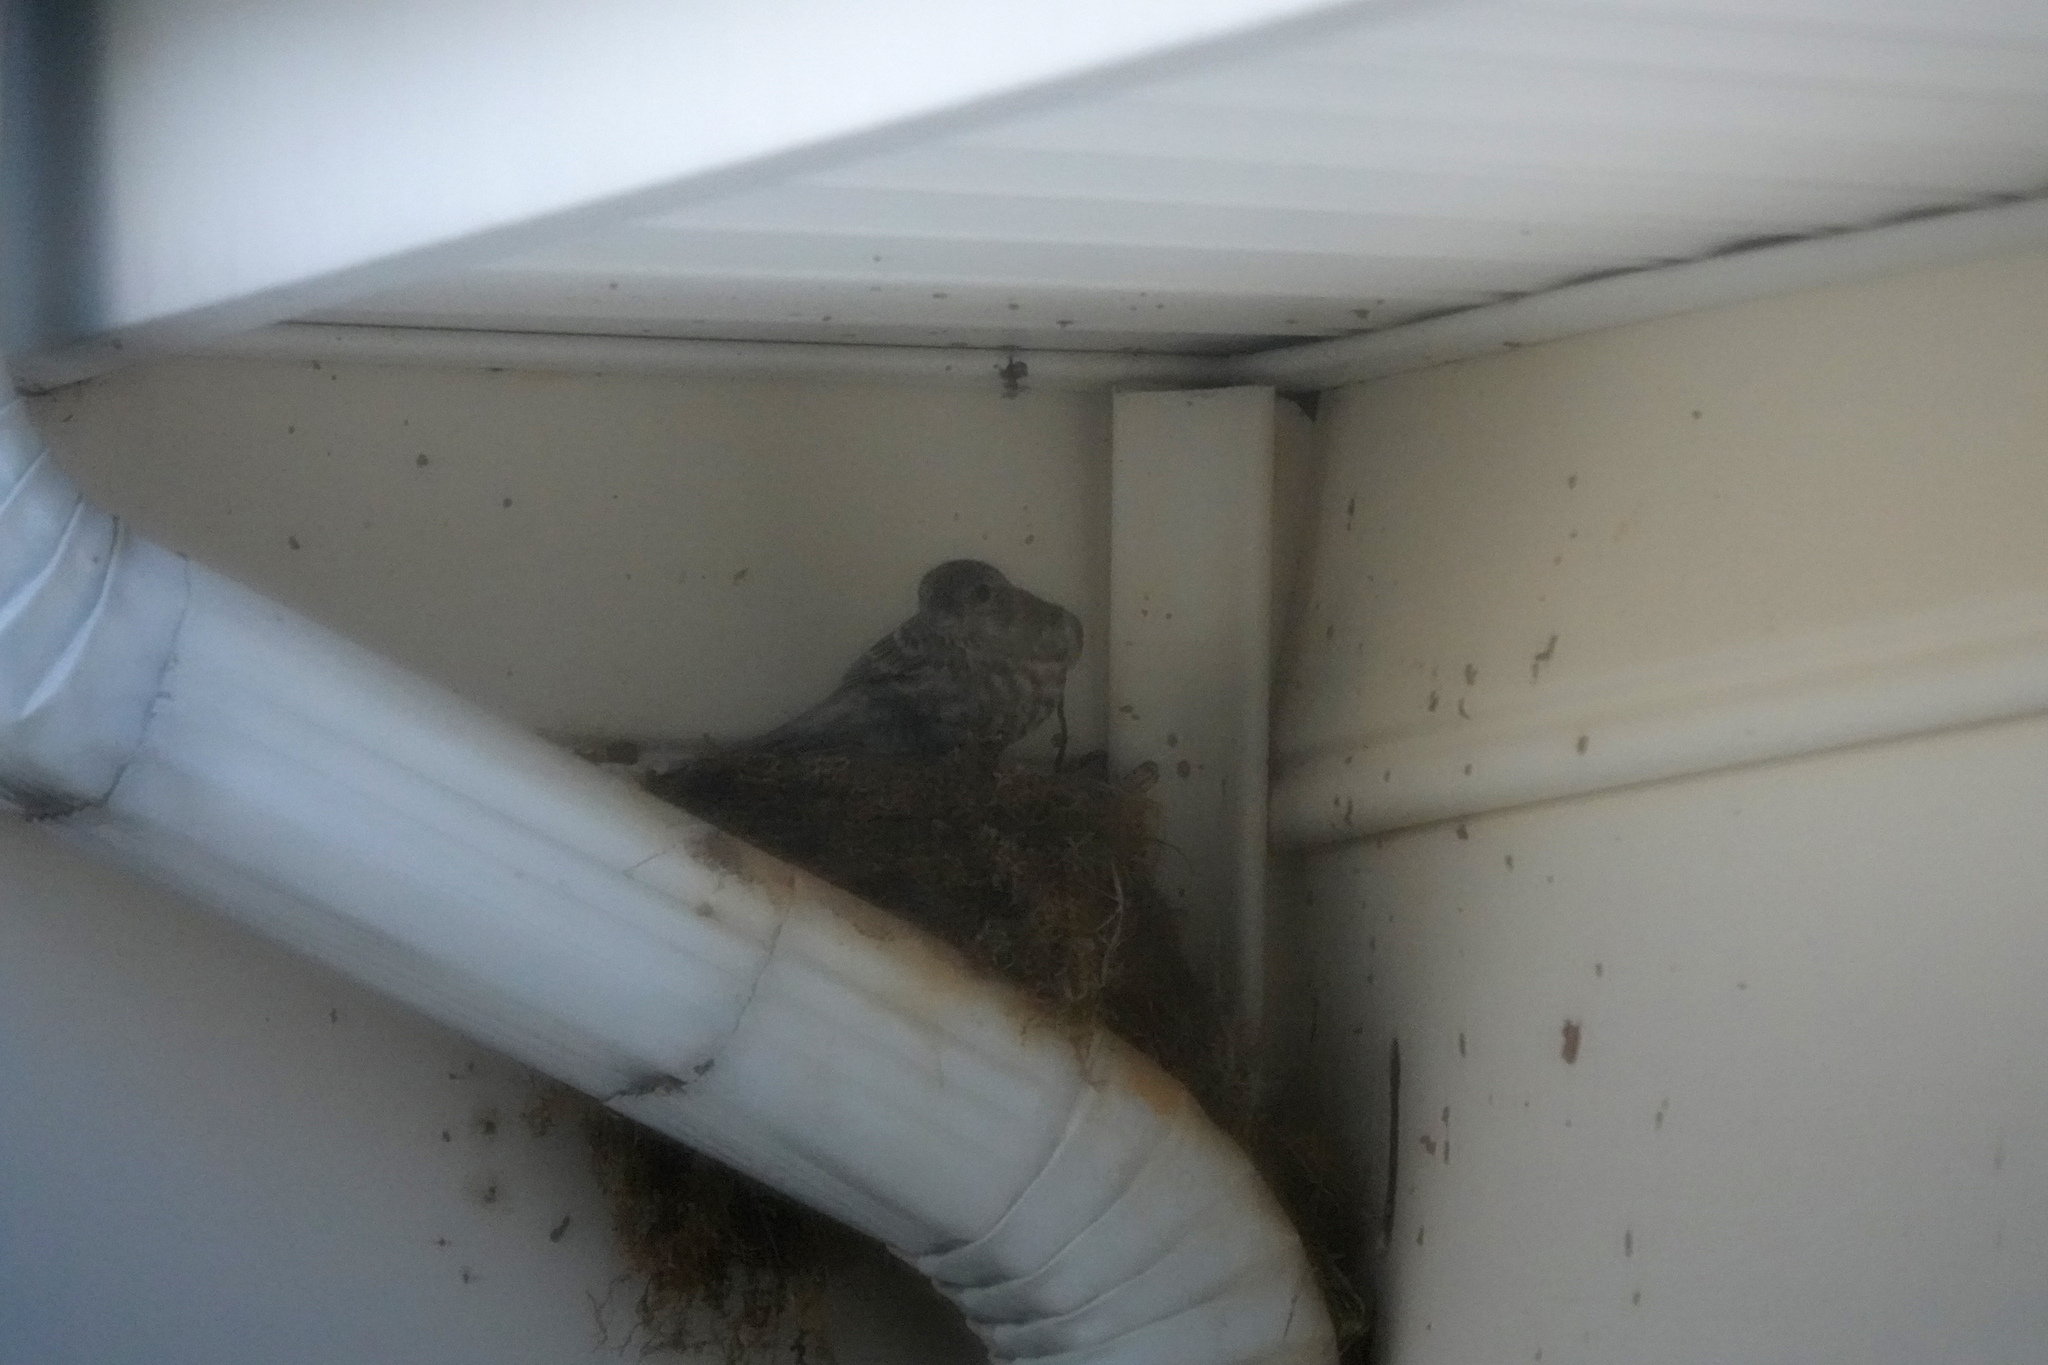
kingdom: Animalia
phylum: Chordata
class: Aves
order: Passeriformes
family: Fringillidae
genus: Haemorhous
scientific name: Haemorhous mexicanus
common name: House finch
